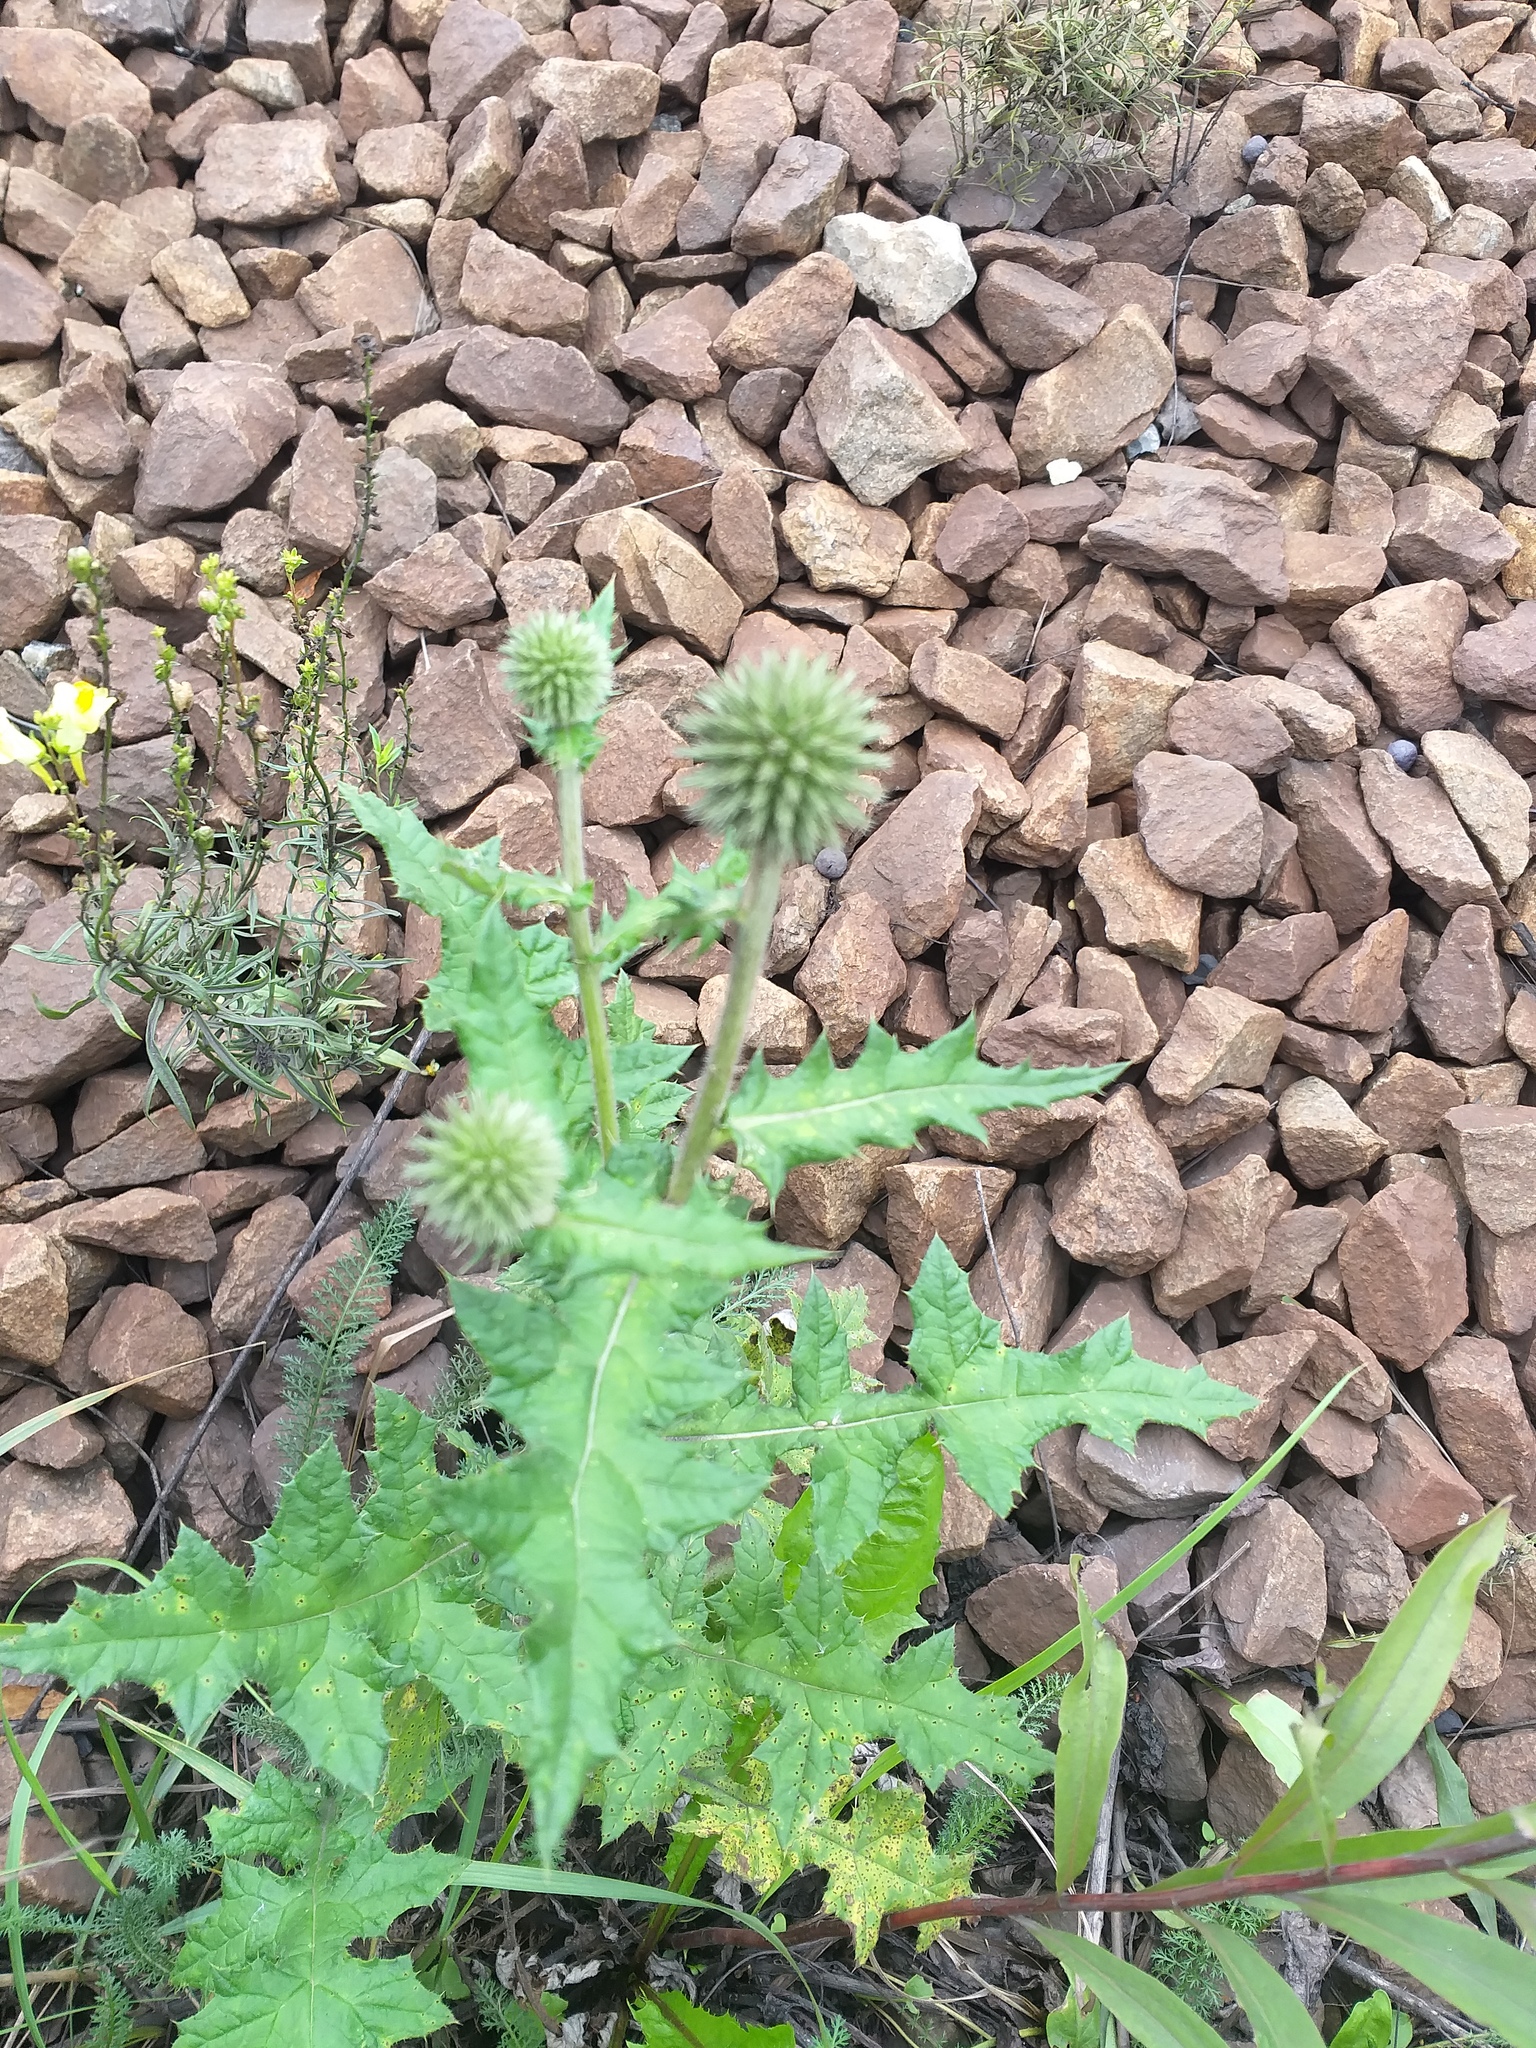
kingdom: Plantae
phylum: Tracheophyta
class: Magnoliopsida
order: Asterales
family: Asteraceae
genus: Echinops
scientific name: Echinops sphaerocephalus
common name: Glandular globe-thistle
